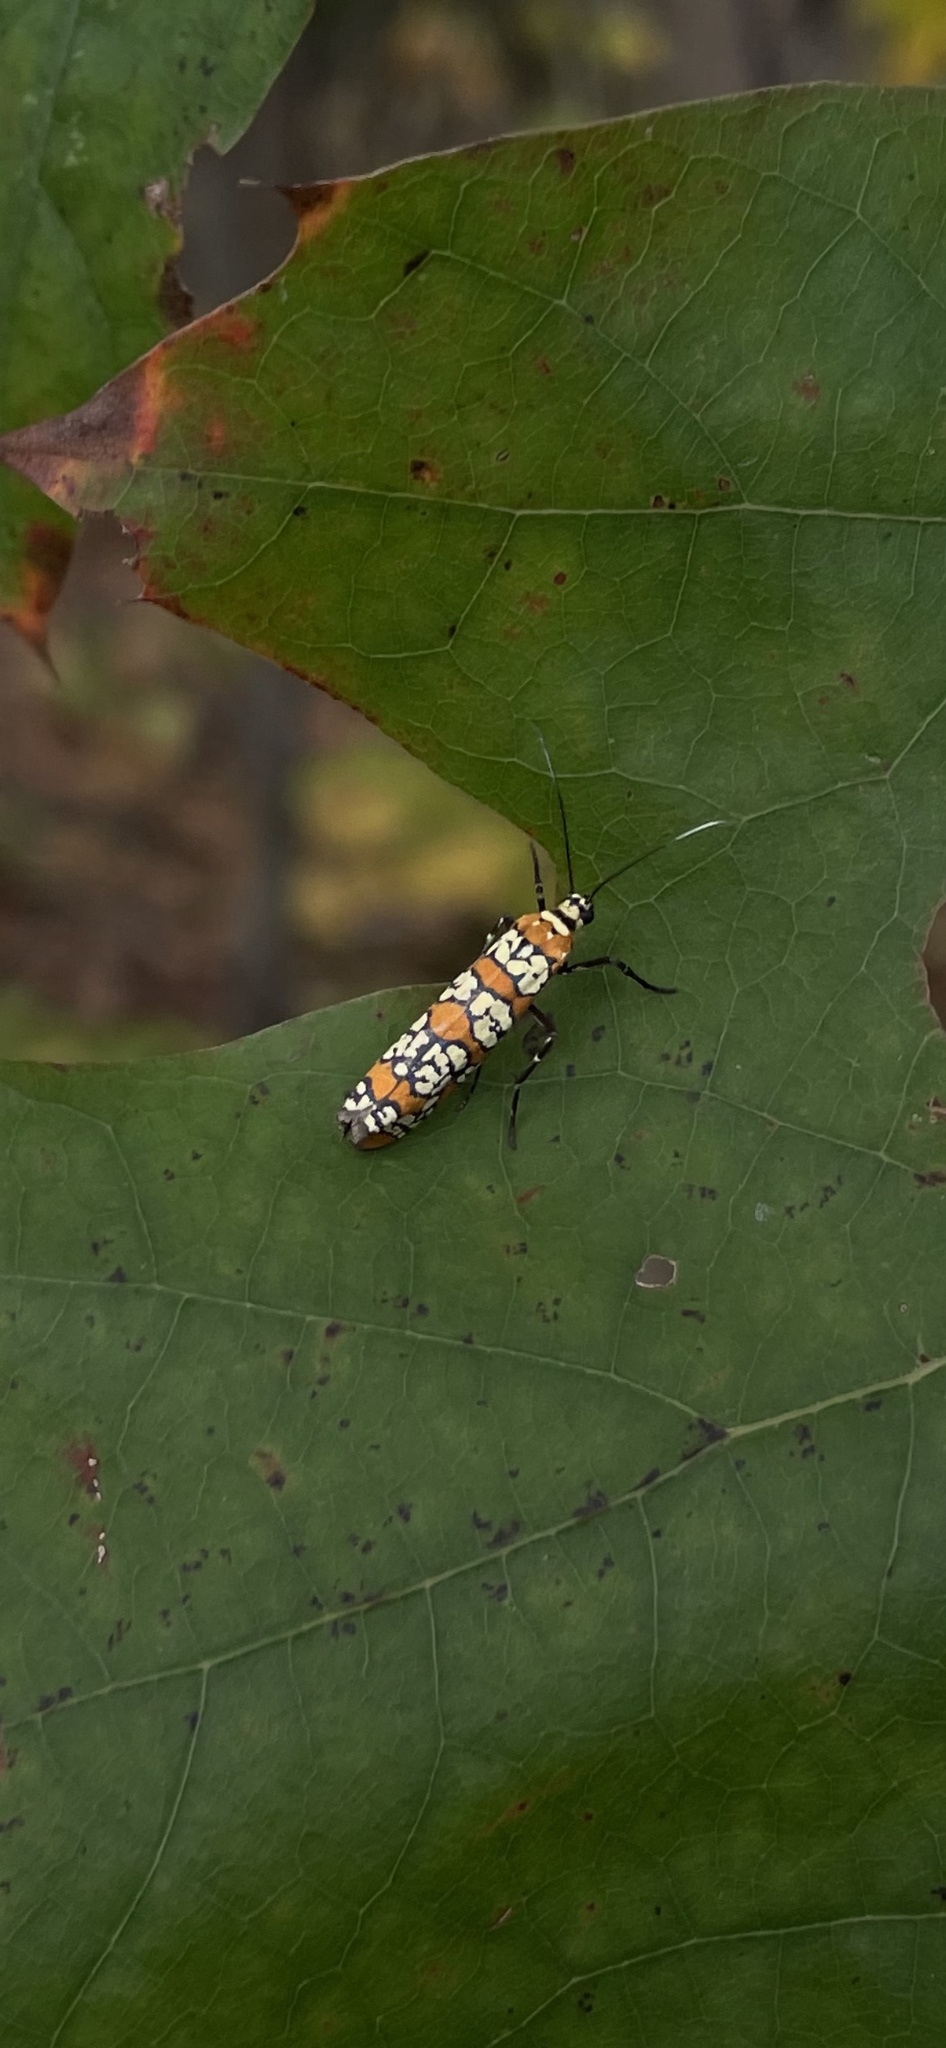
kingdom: Animalia
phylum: Arthropoda
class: Insecta
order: Lepidoptera
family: Attevidae
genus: Atteva
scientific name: Atteva punctella
